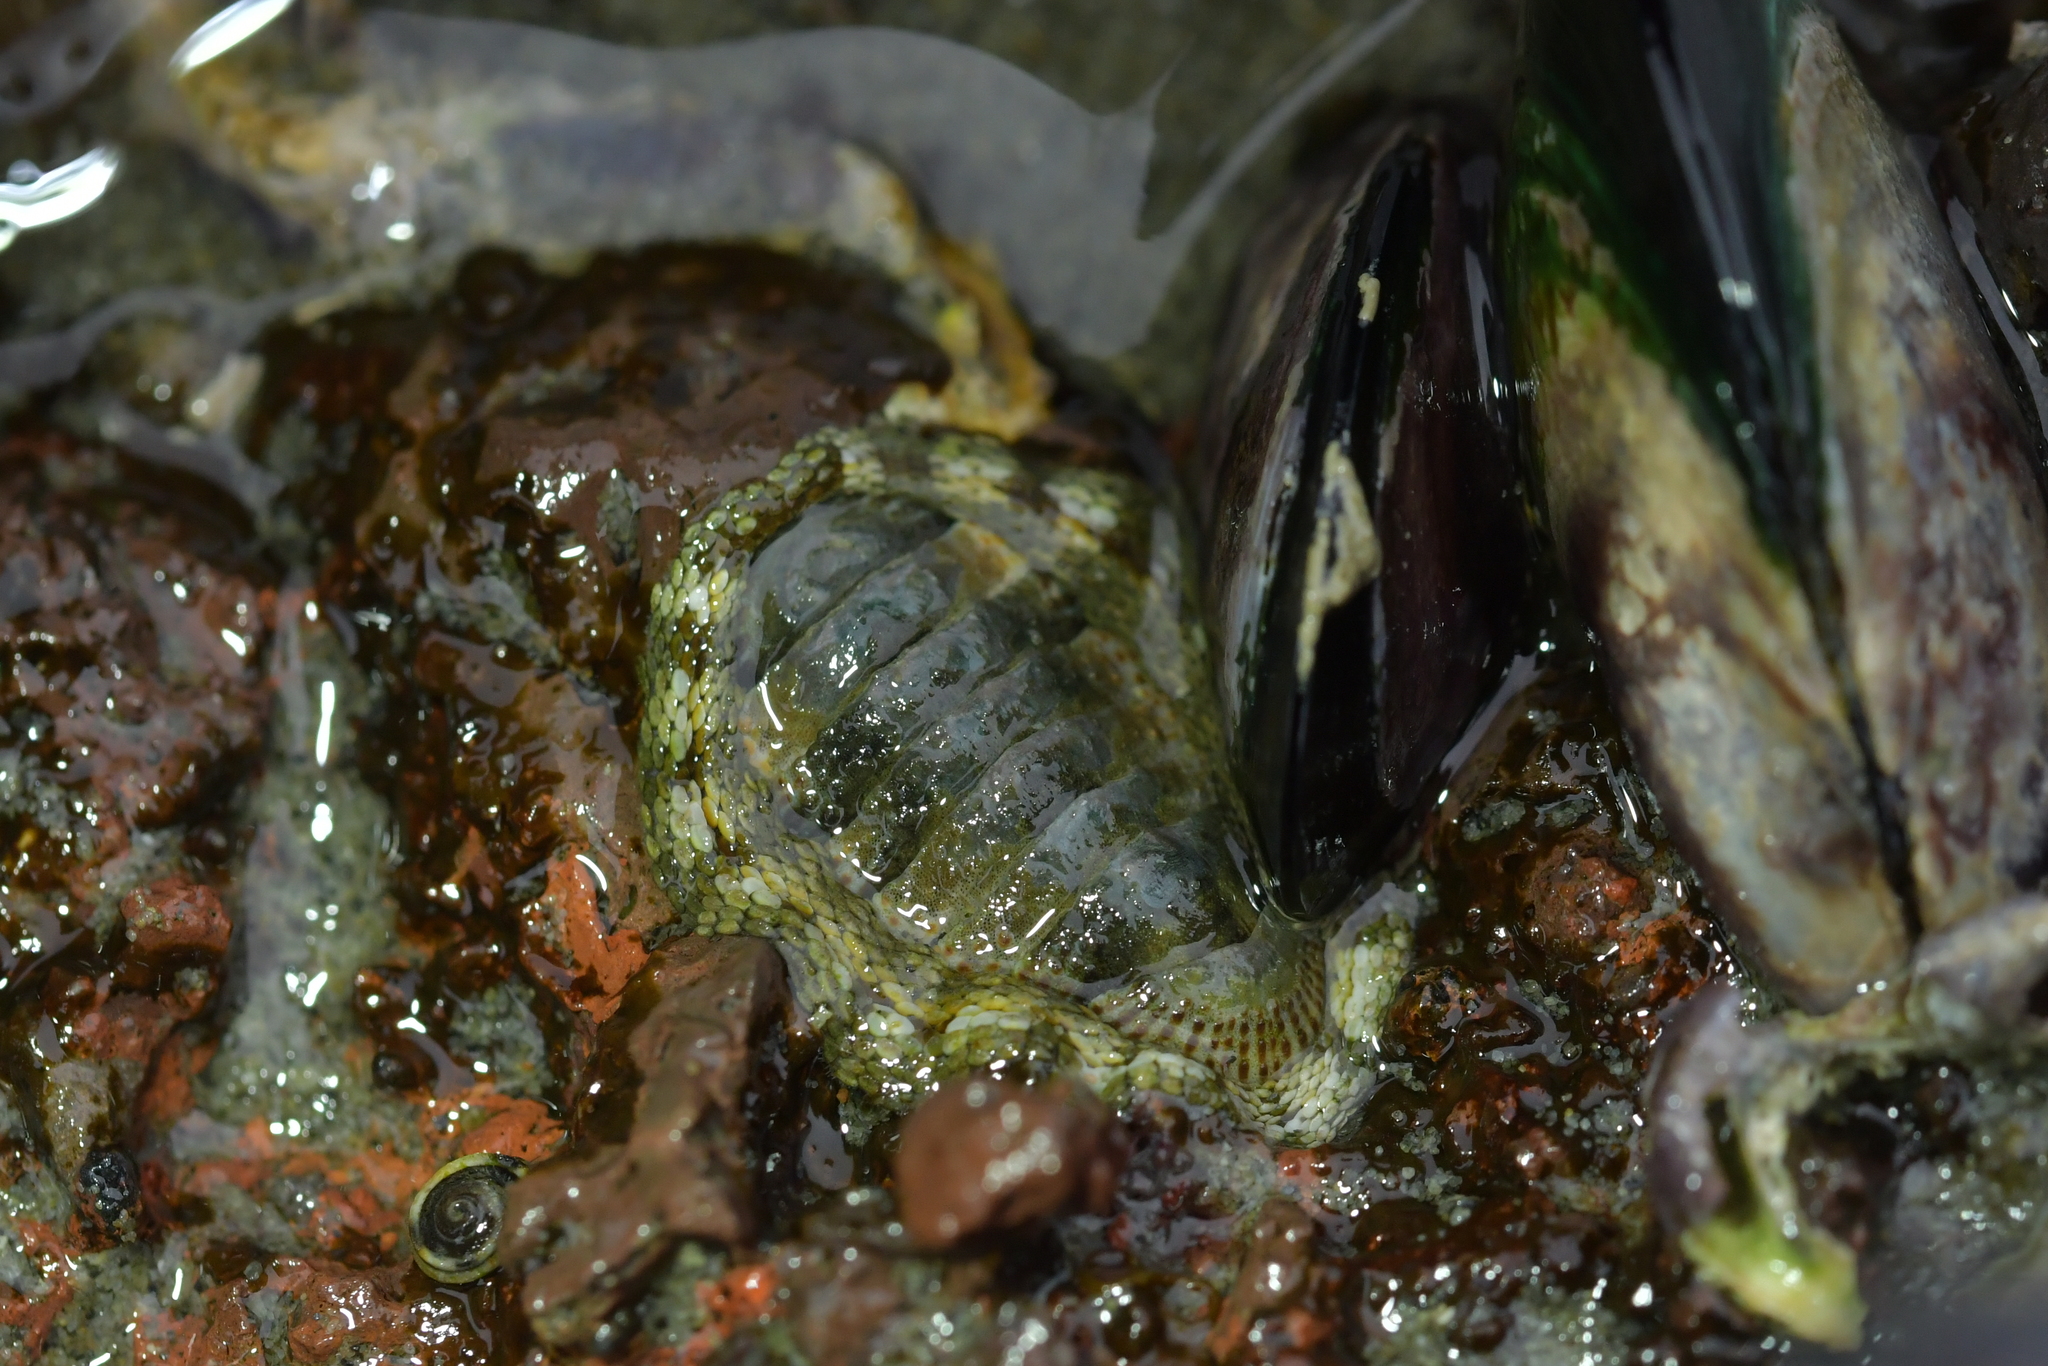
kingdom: Animalia
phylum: Mollusca
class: Polyplacophora
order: Chitonida
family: Chitonidae
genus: Sypharochiton
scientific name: Sypharochiton pelliserpentis
